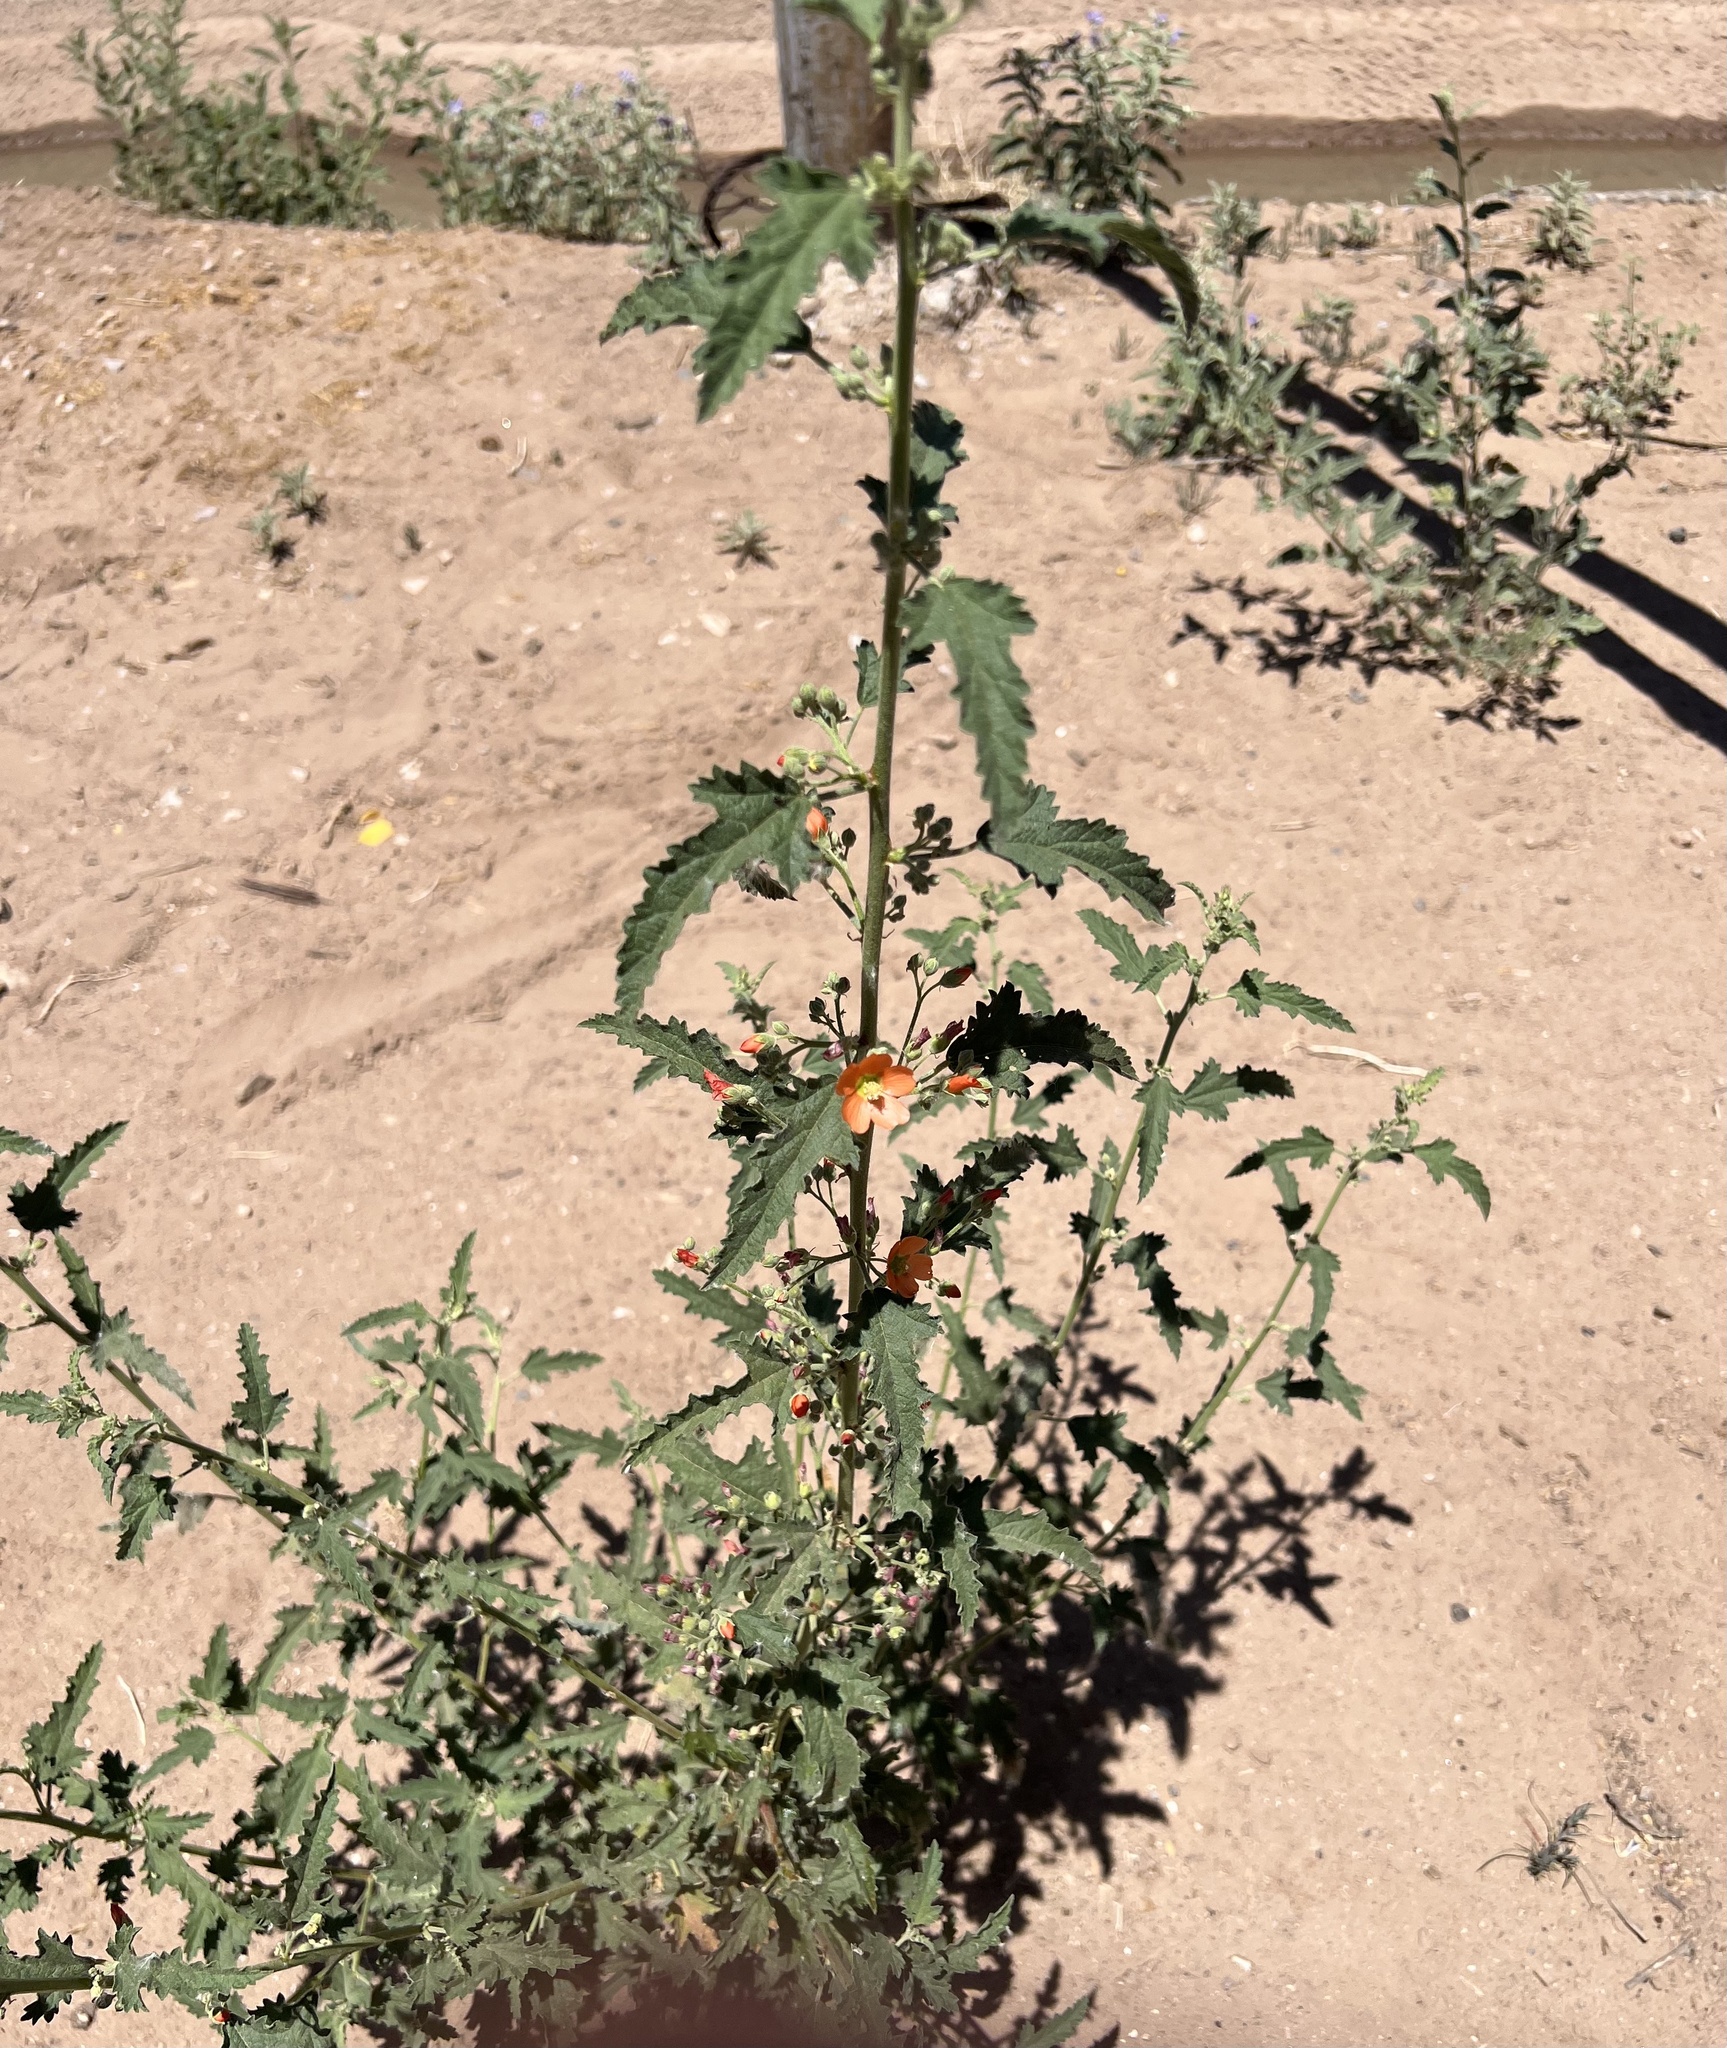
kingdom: Plantae
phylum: Tracheophyta
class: Magnoliopsida
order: Malvales
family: Malvaceae
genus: Sphaeralcea
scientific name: Sphaeralcea angustifolia
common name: Copper globe-mallow
